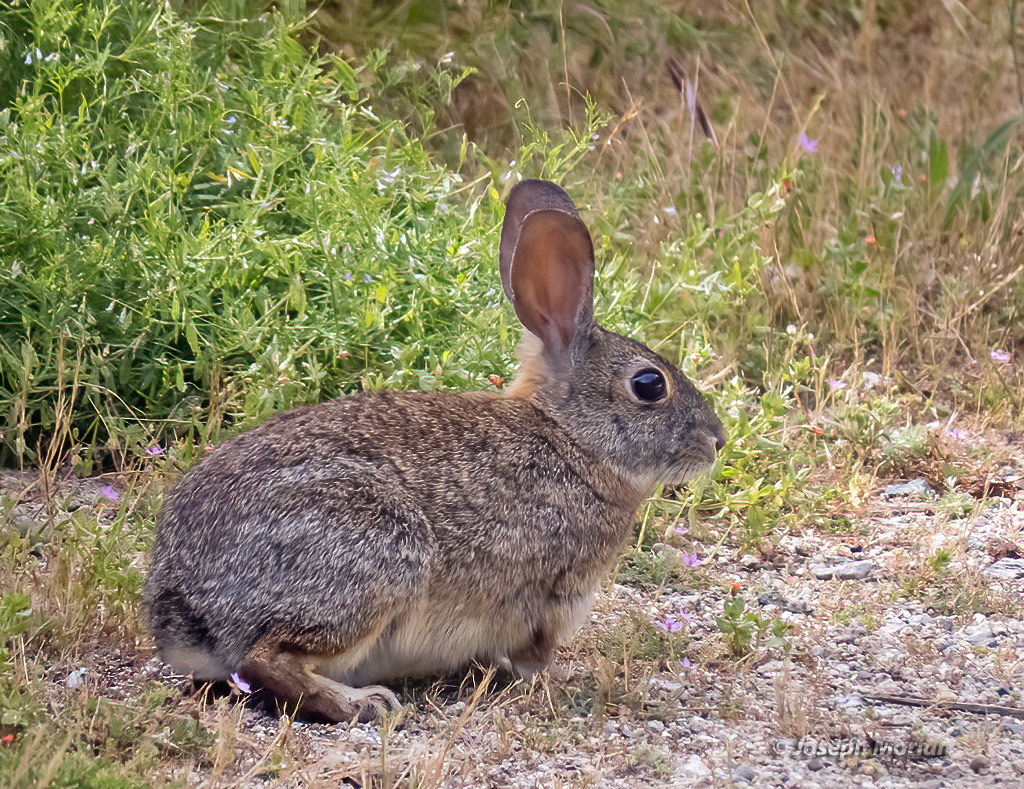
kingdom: Animalia
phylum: Chordata
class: Mammalia
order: Lagomorpha
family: Leporidae
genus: Sylvilagus
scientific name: Sylvilagus bachmani
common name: Brush rabbit
